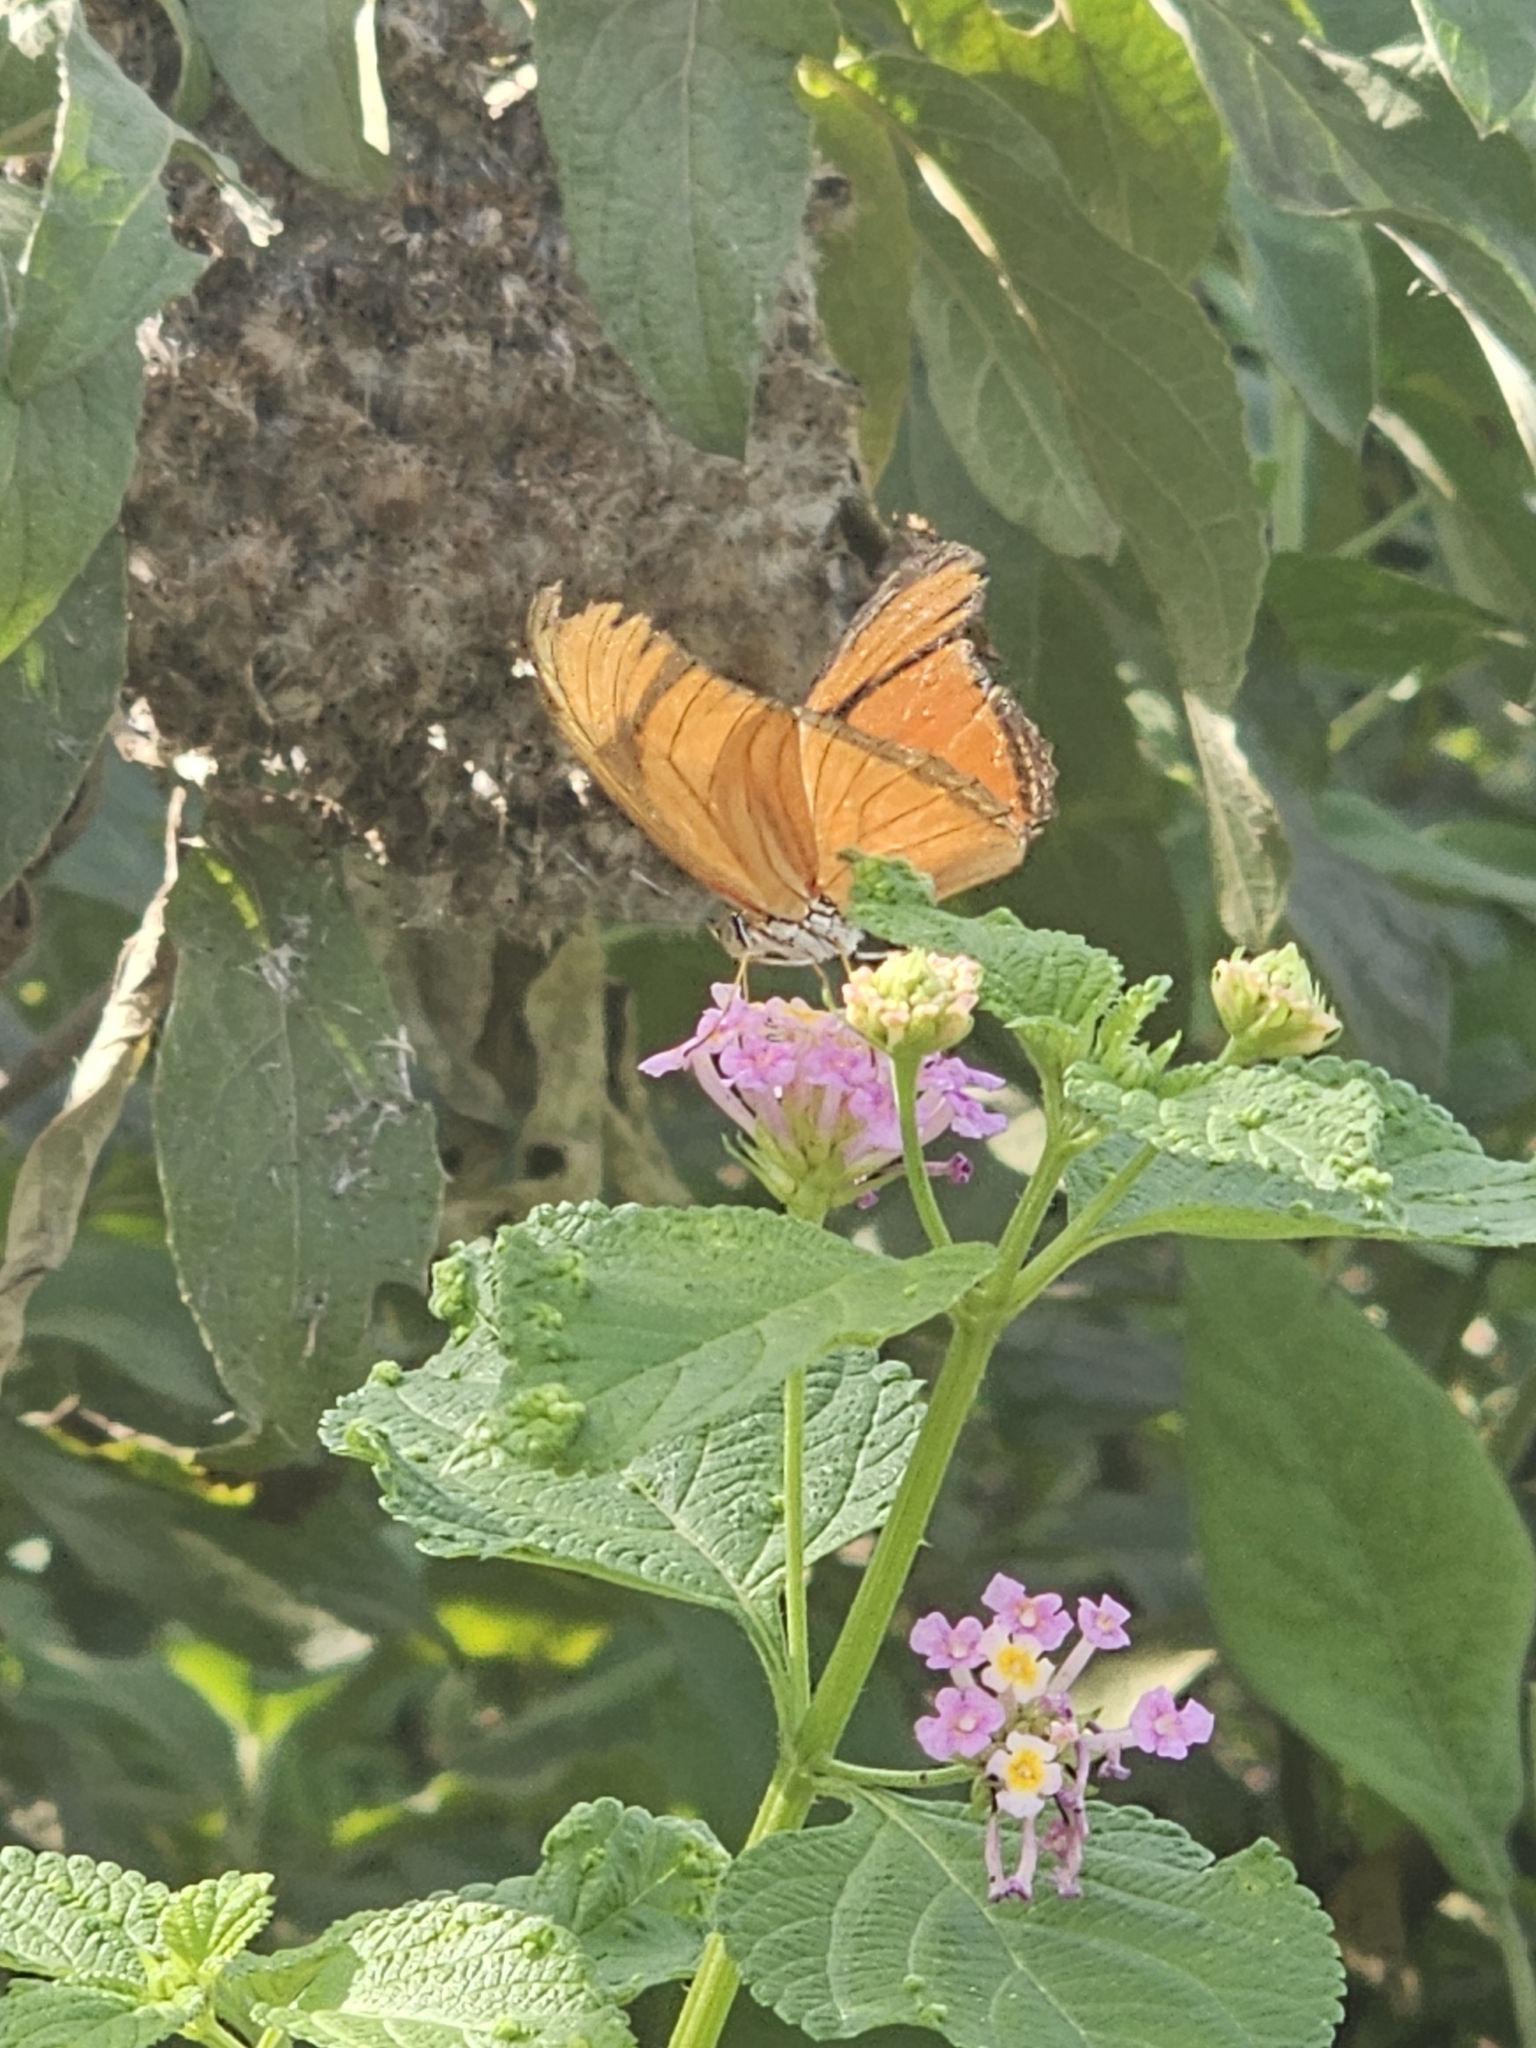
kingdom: Animalia
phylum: Arthropoda
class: Insecta
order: Lepidoptera
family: Nymphalidae
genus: Dryas
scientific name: Dryas iulia
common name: Flambeau
